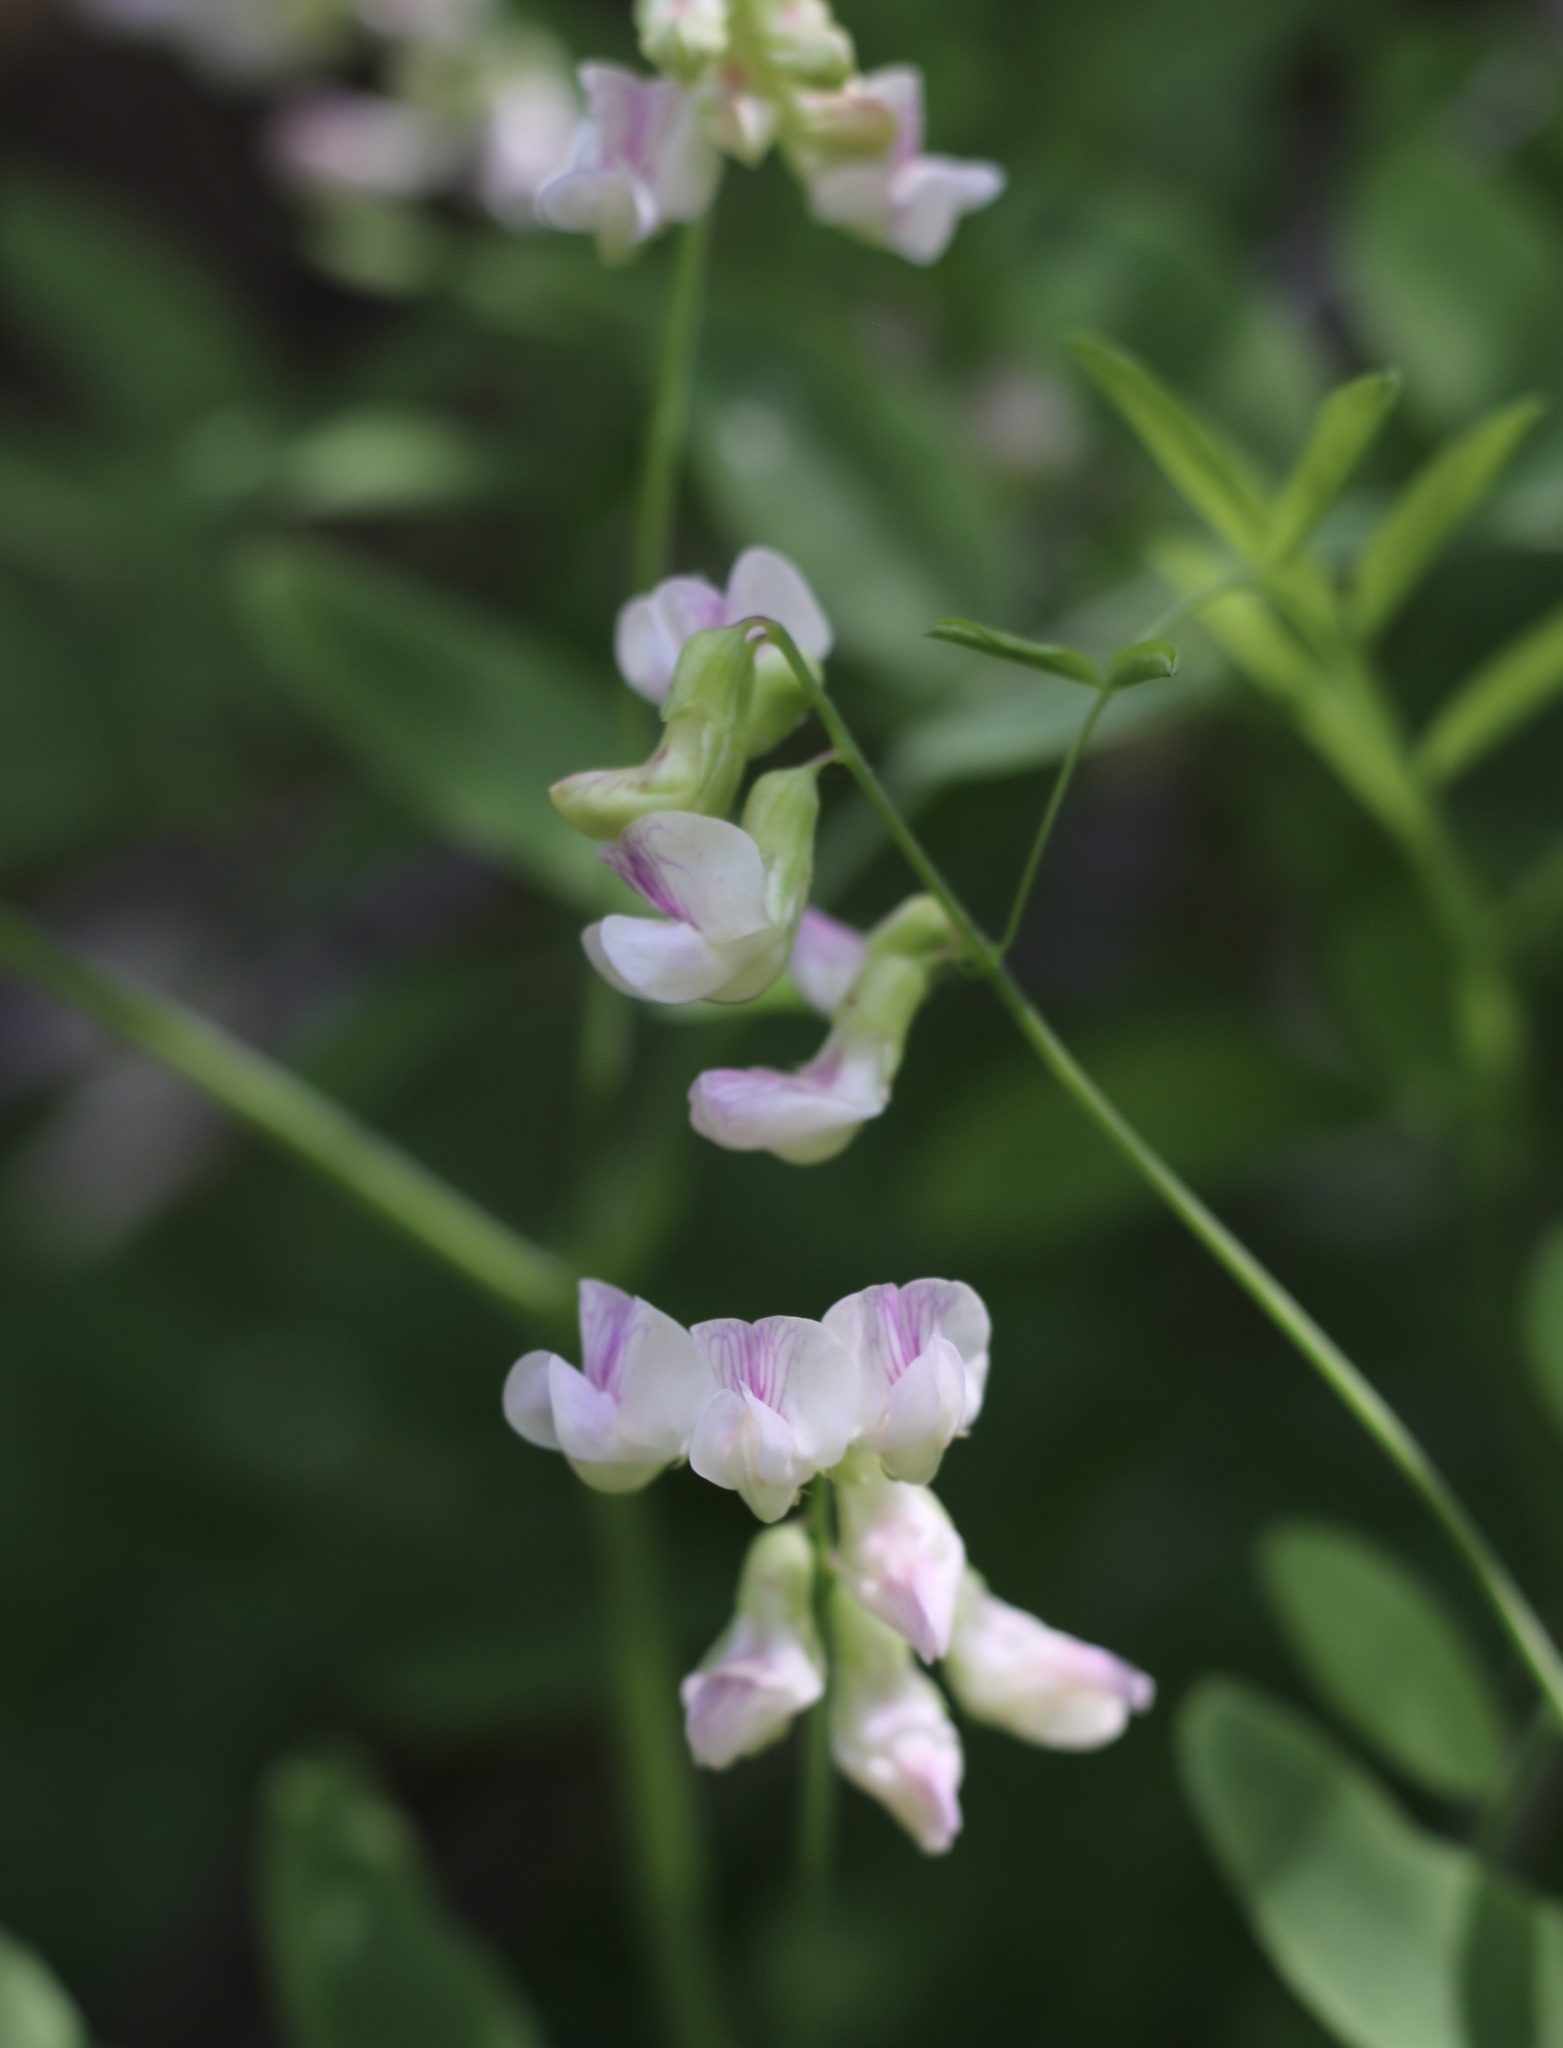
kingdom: Plantae
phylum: Tracheophyta
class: Magnoliopsida
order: Fabales
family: Fabaceae
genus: Lathyrus
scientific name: Lathyrus delnorticus
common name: Del norte-pea
